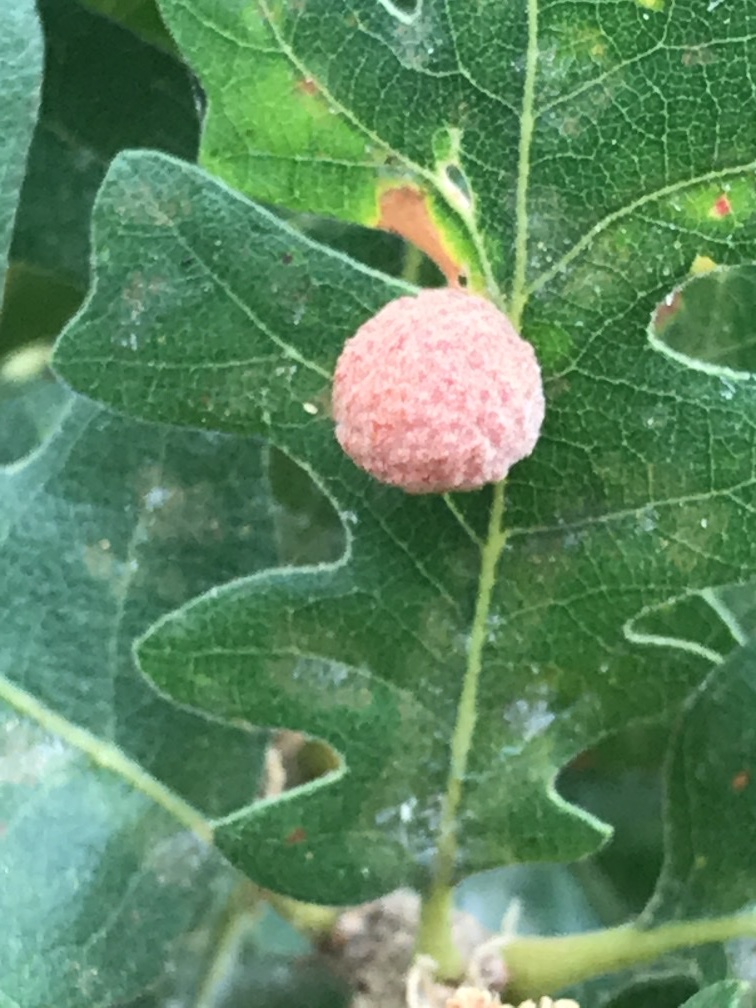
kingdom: Animalia
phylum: Arthropoda
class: Insecta
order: Hymenoptera
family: Cynipidae
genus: Cynips
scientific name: Cynips conspicua
